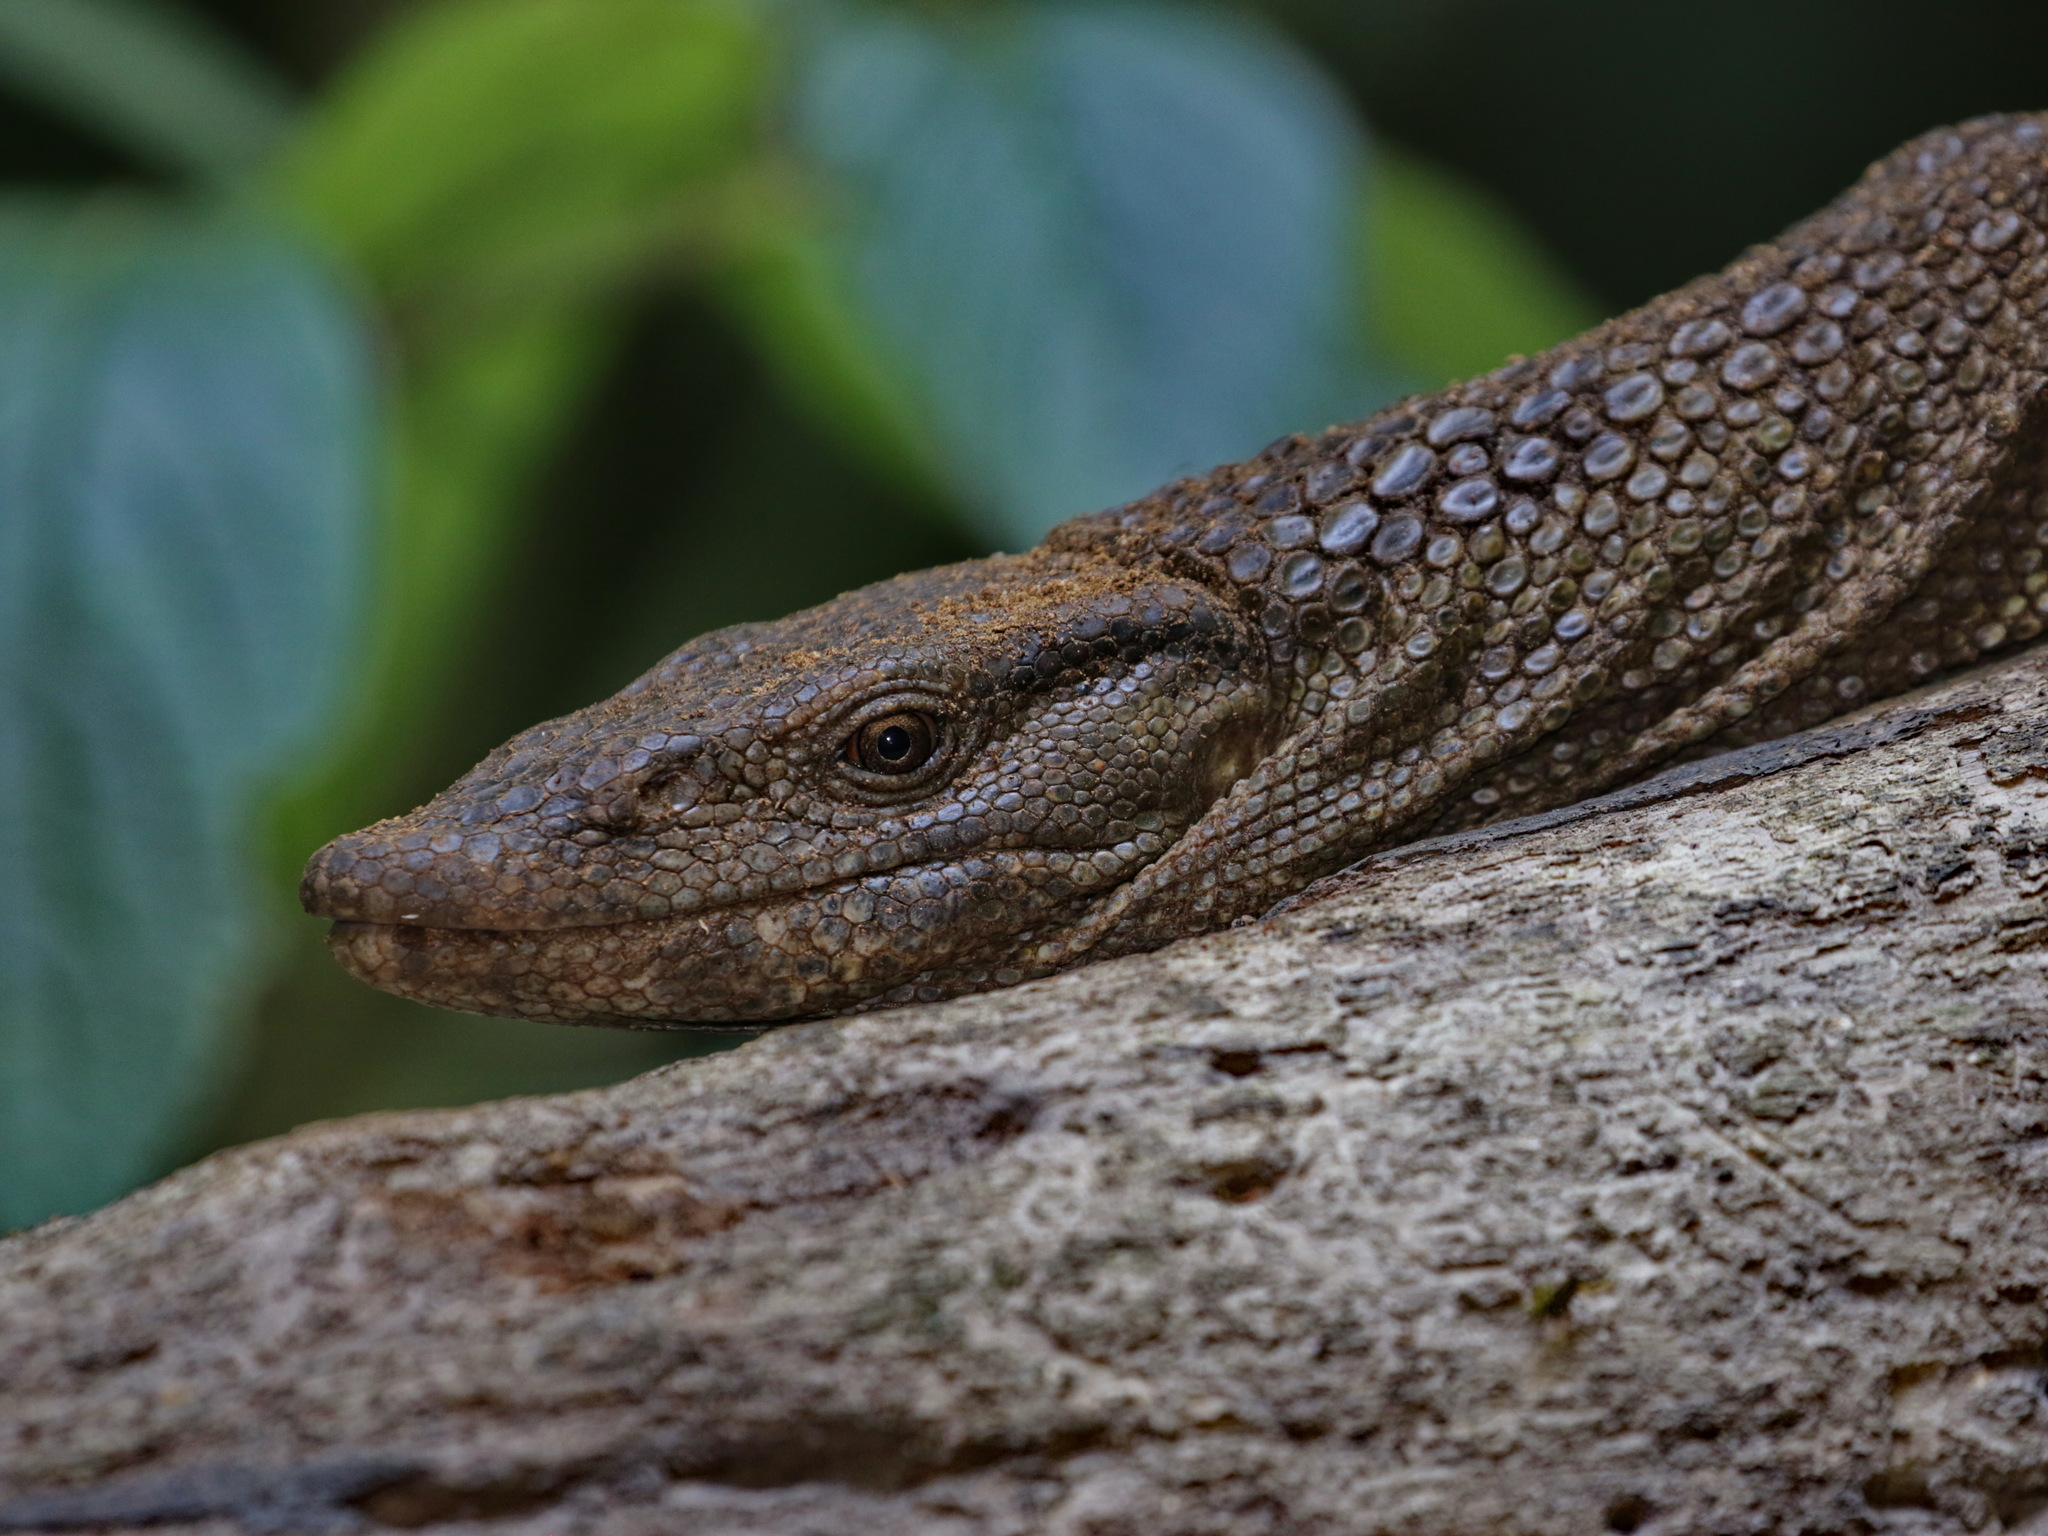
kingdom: Animalia
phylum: Chordata
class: Squamata
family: Varanidae
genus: Varanus
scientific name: Varanus dumerilii
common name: Dumeril monitor
